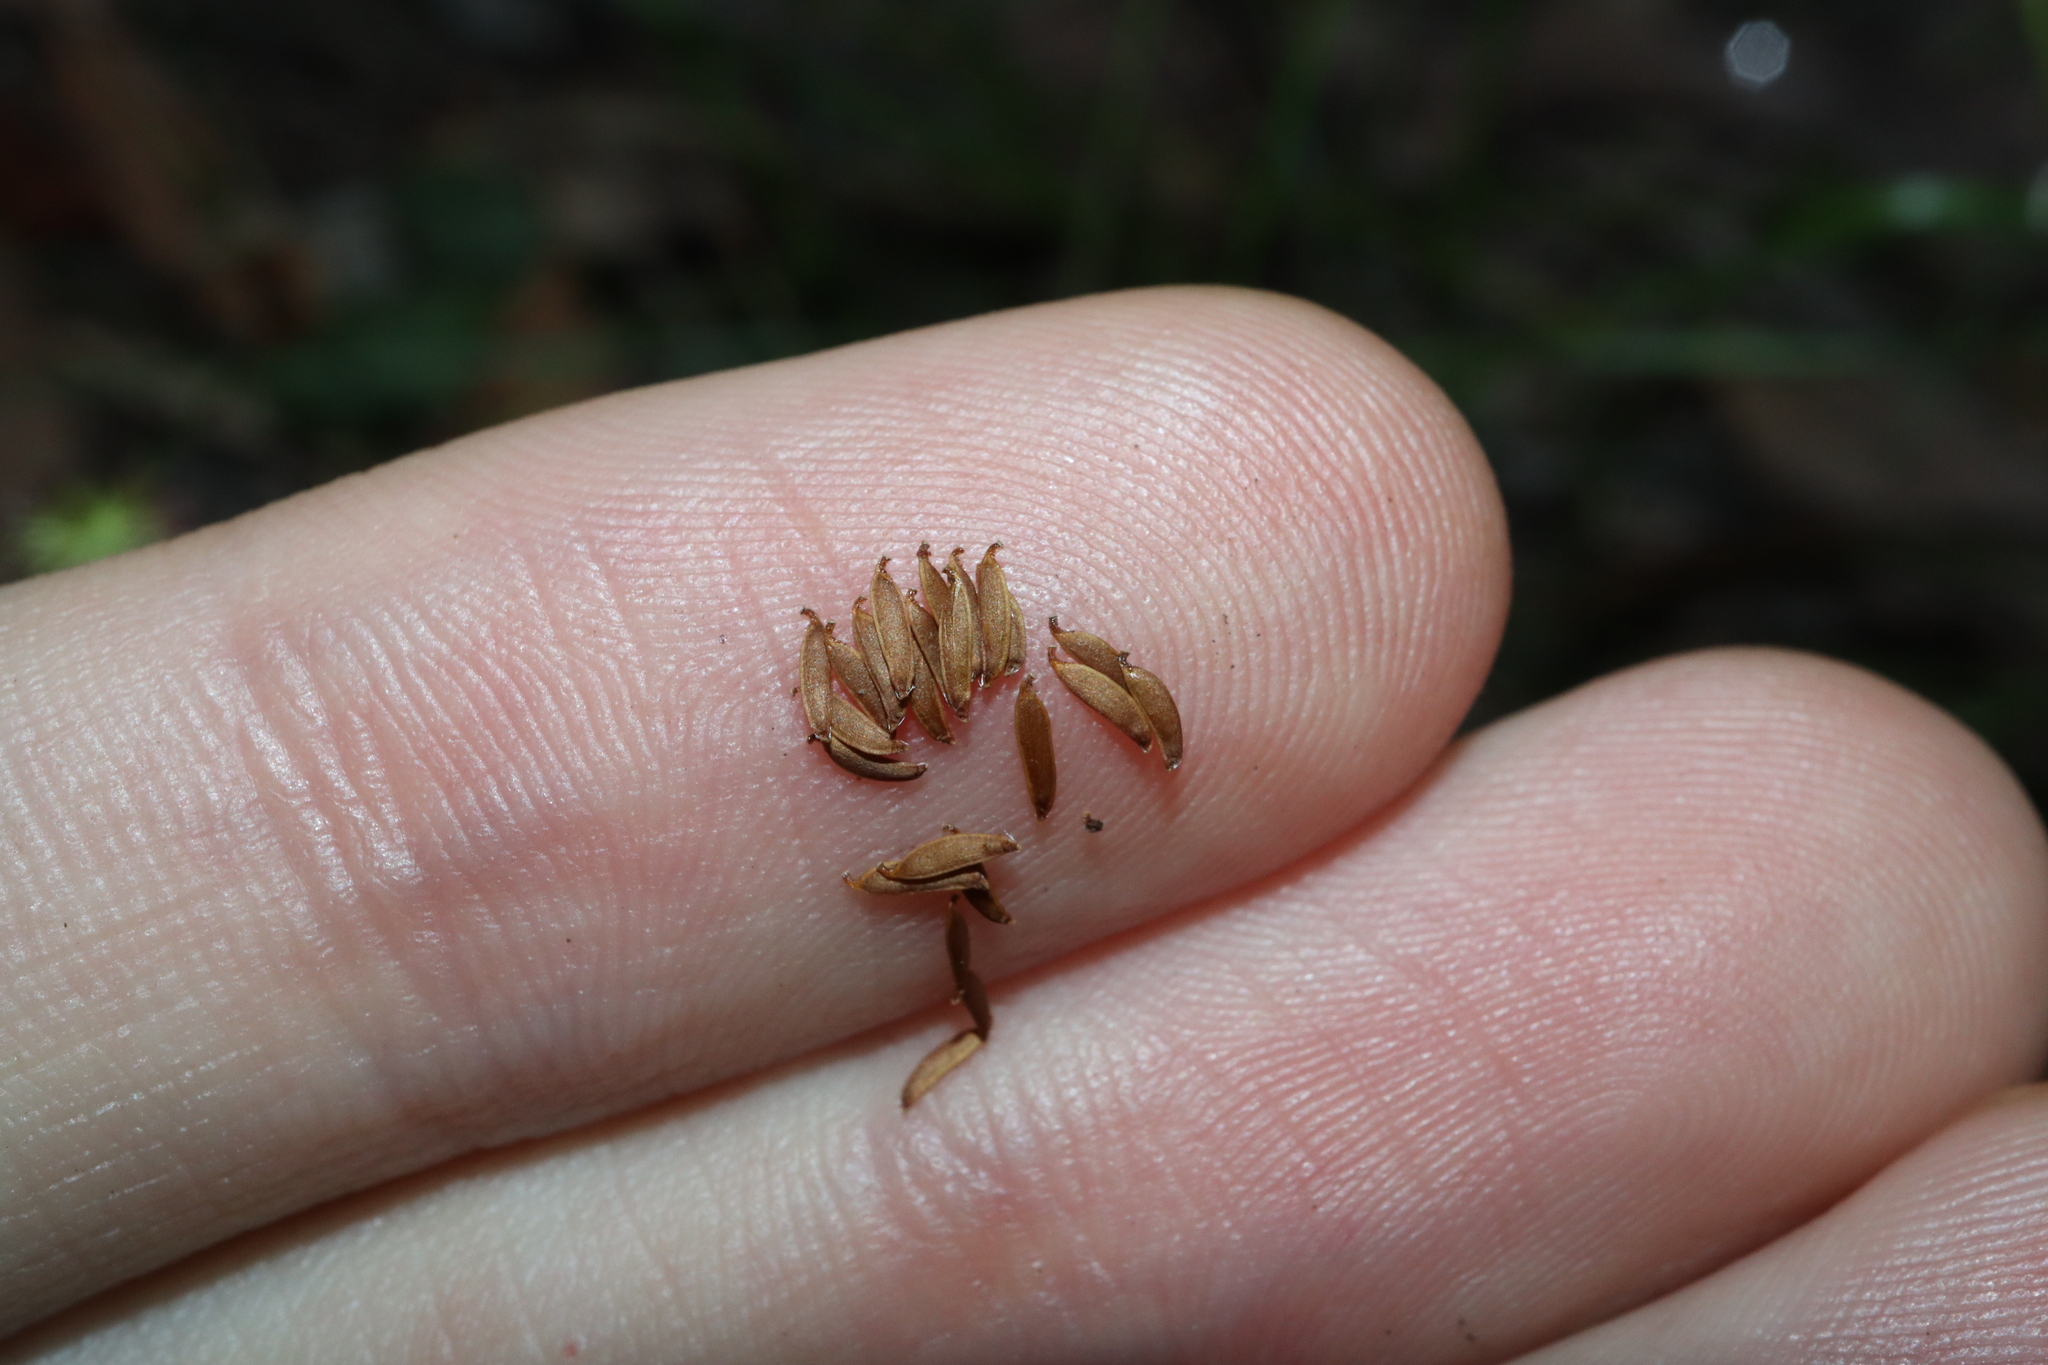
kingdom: Plantae
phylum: Tracheophyta
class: Magnoliopsida
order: Asterales
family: Asteraceae
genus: Lagenophora
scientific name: Lagenophora sublyrata ter
